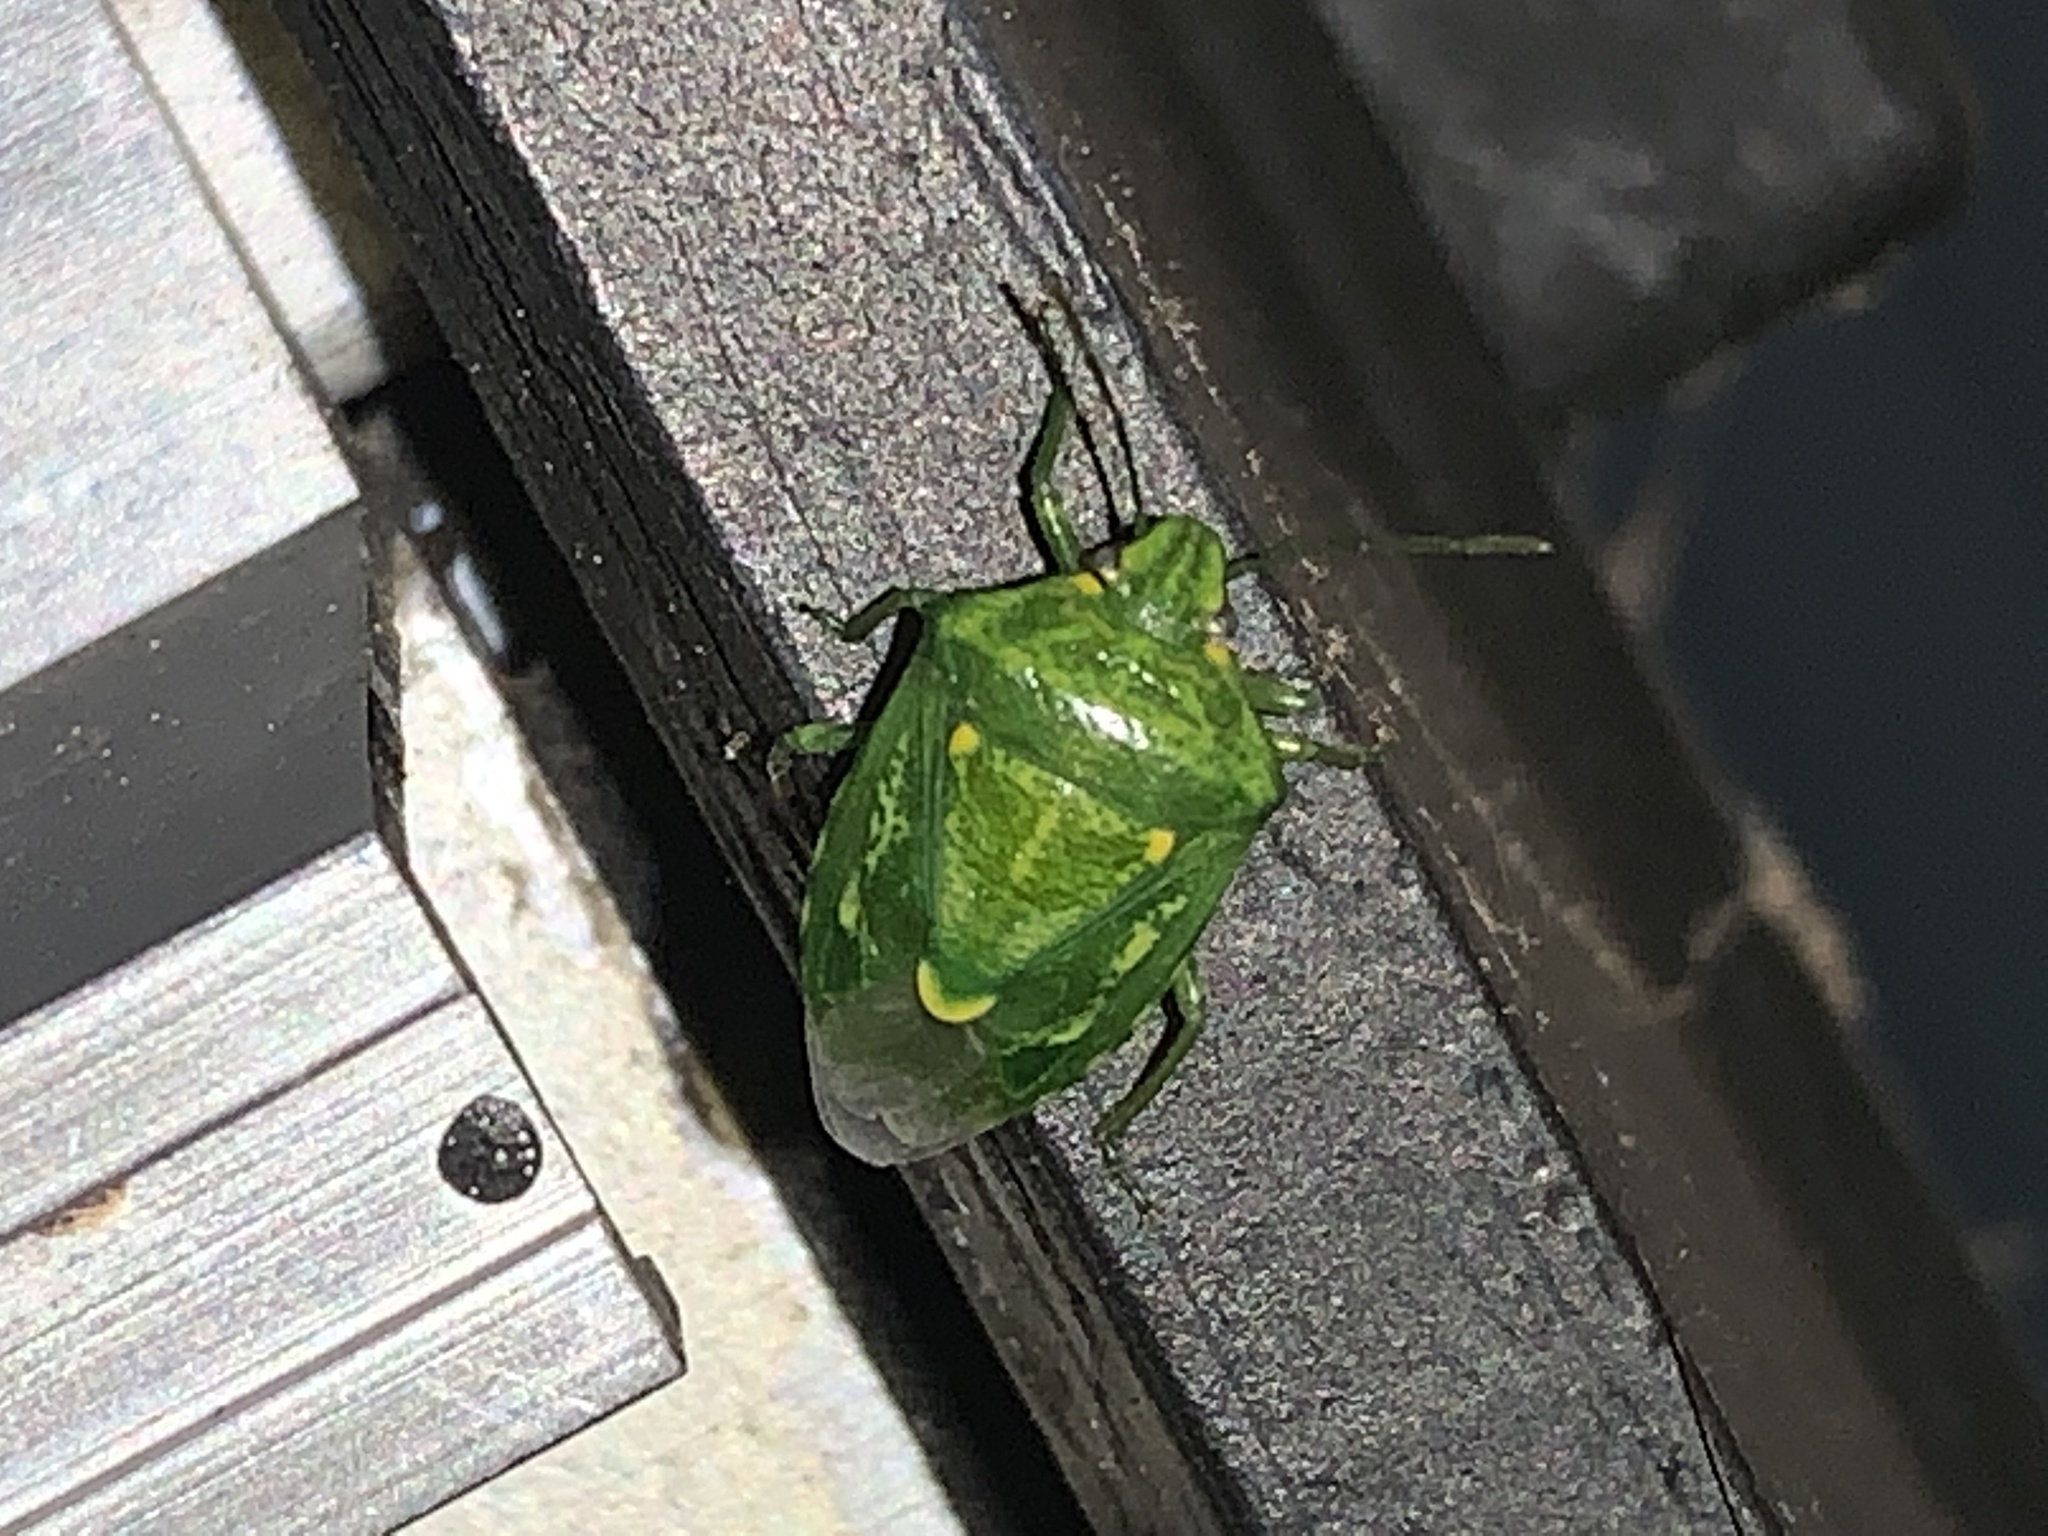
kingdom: Animalia
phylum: Arthropoda
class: Insecta
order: Hemiptera
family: Pentatomidae
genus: Banasa
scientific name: Banasa euchlora
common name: Cedar berry bug
